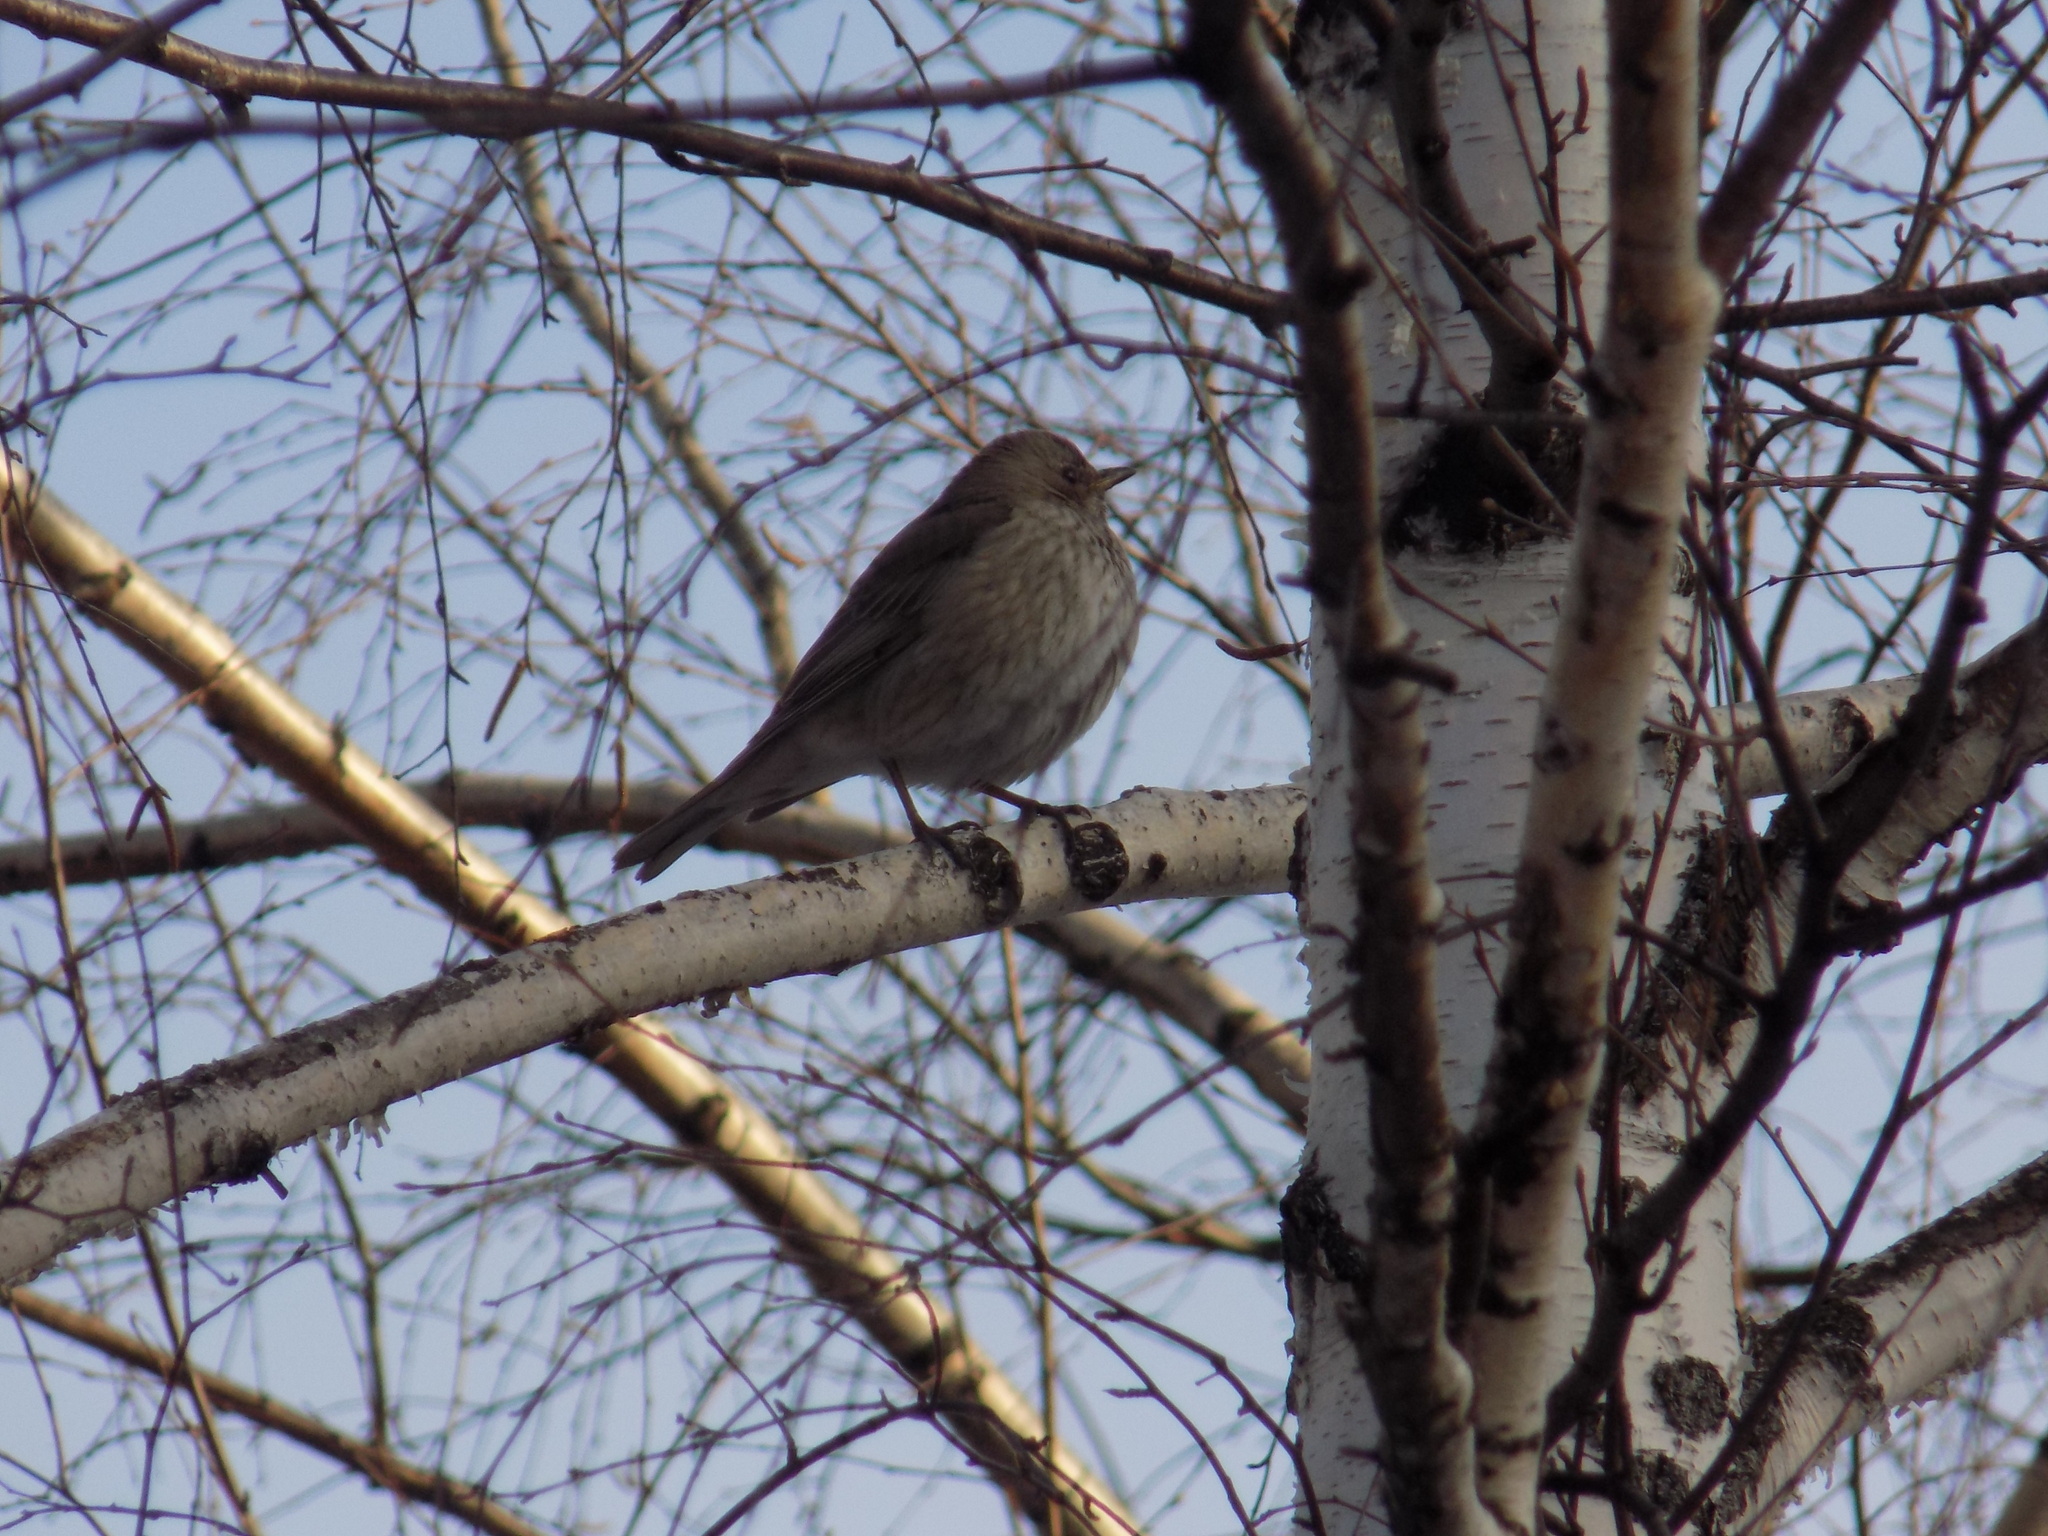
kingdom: Animalia
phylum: Chordata
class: Aves
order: Passeriformes
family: Turdidae
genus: Turdus
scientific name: Turdus atrogularis
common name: Black-throated thrush
